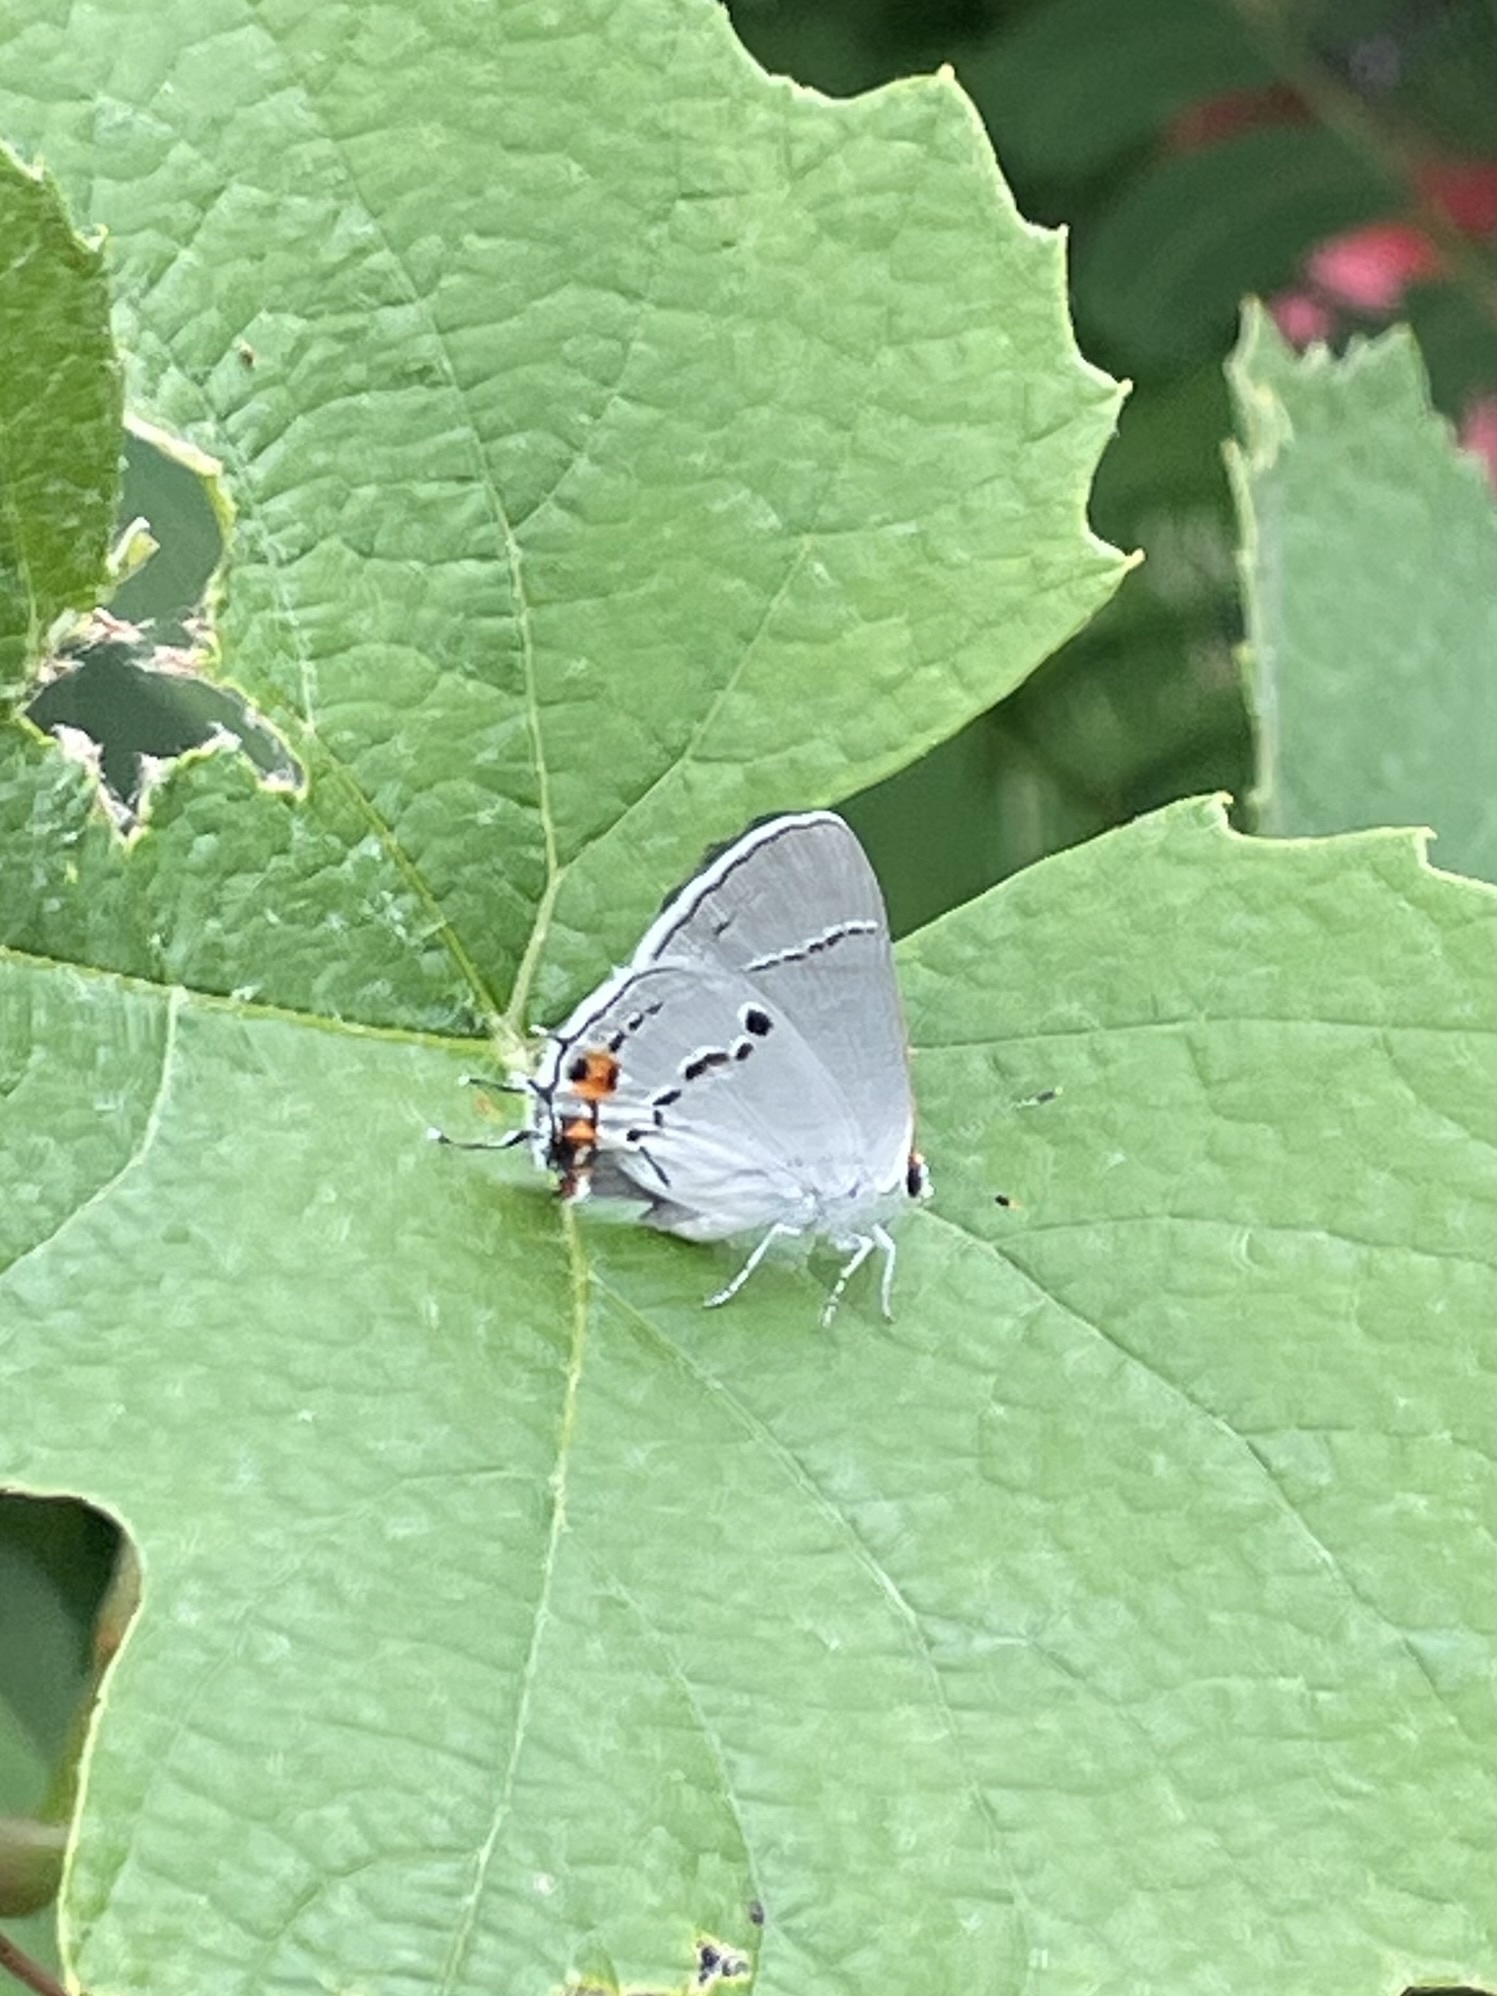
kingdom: Animalia
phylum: Arthropoda
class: Insecta
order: Lepidoptera
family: Lycaenidae
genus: Strymon
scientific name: Strymon melinus
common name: Gray hairstreak
